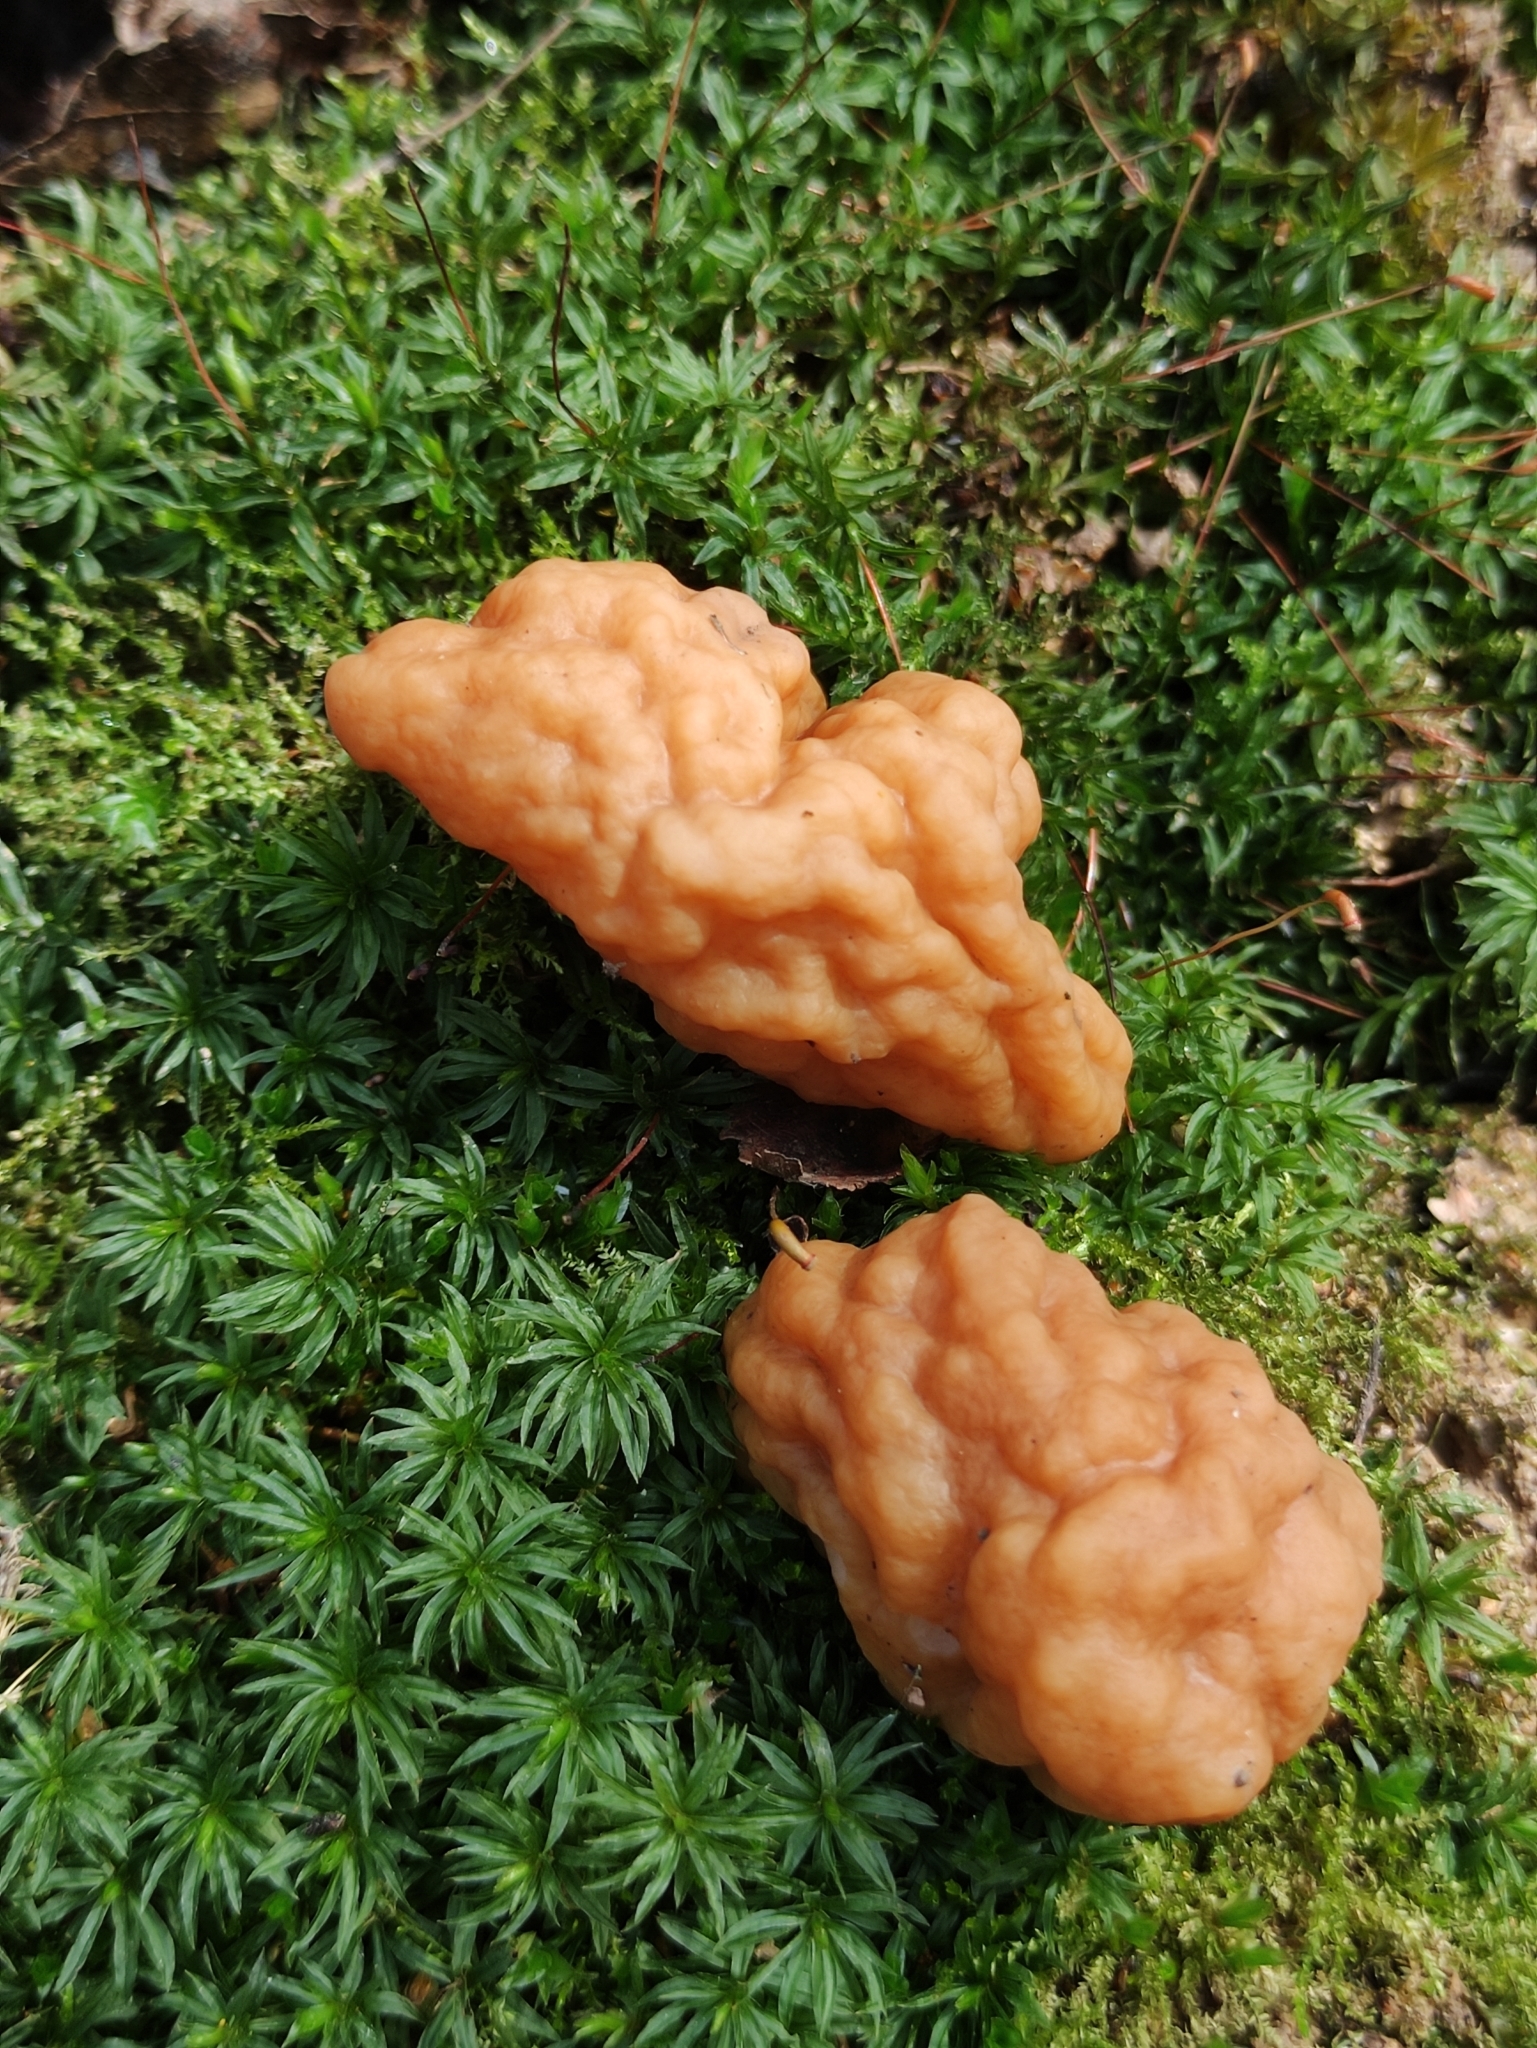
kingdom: Fungi
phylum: Ascomycota
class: Pezizomycetes
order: Pezizales
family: Discinaceae
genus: Gyromitra
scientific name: Gyromitra gigas
